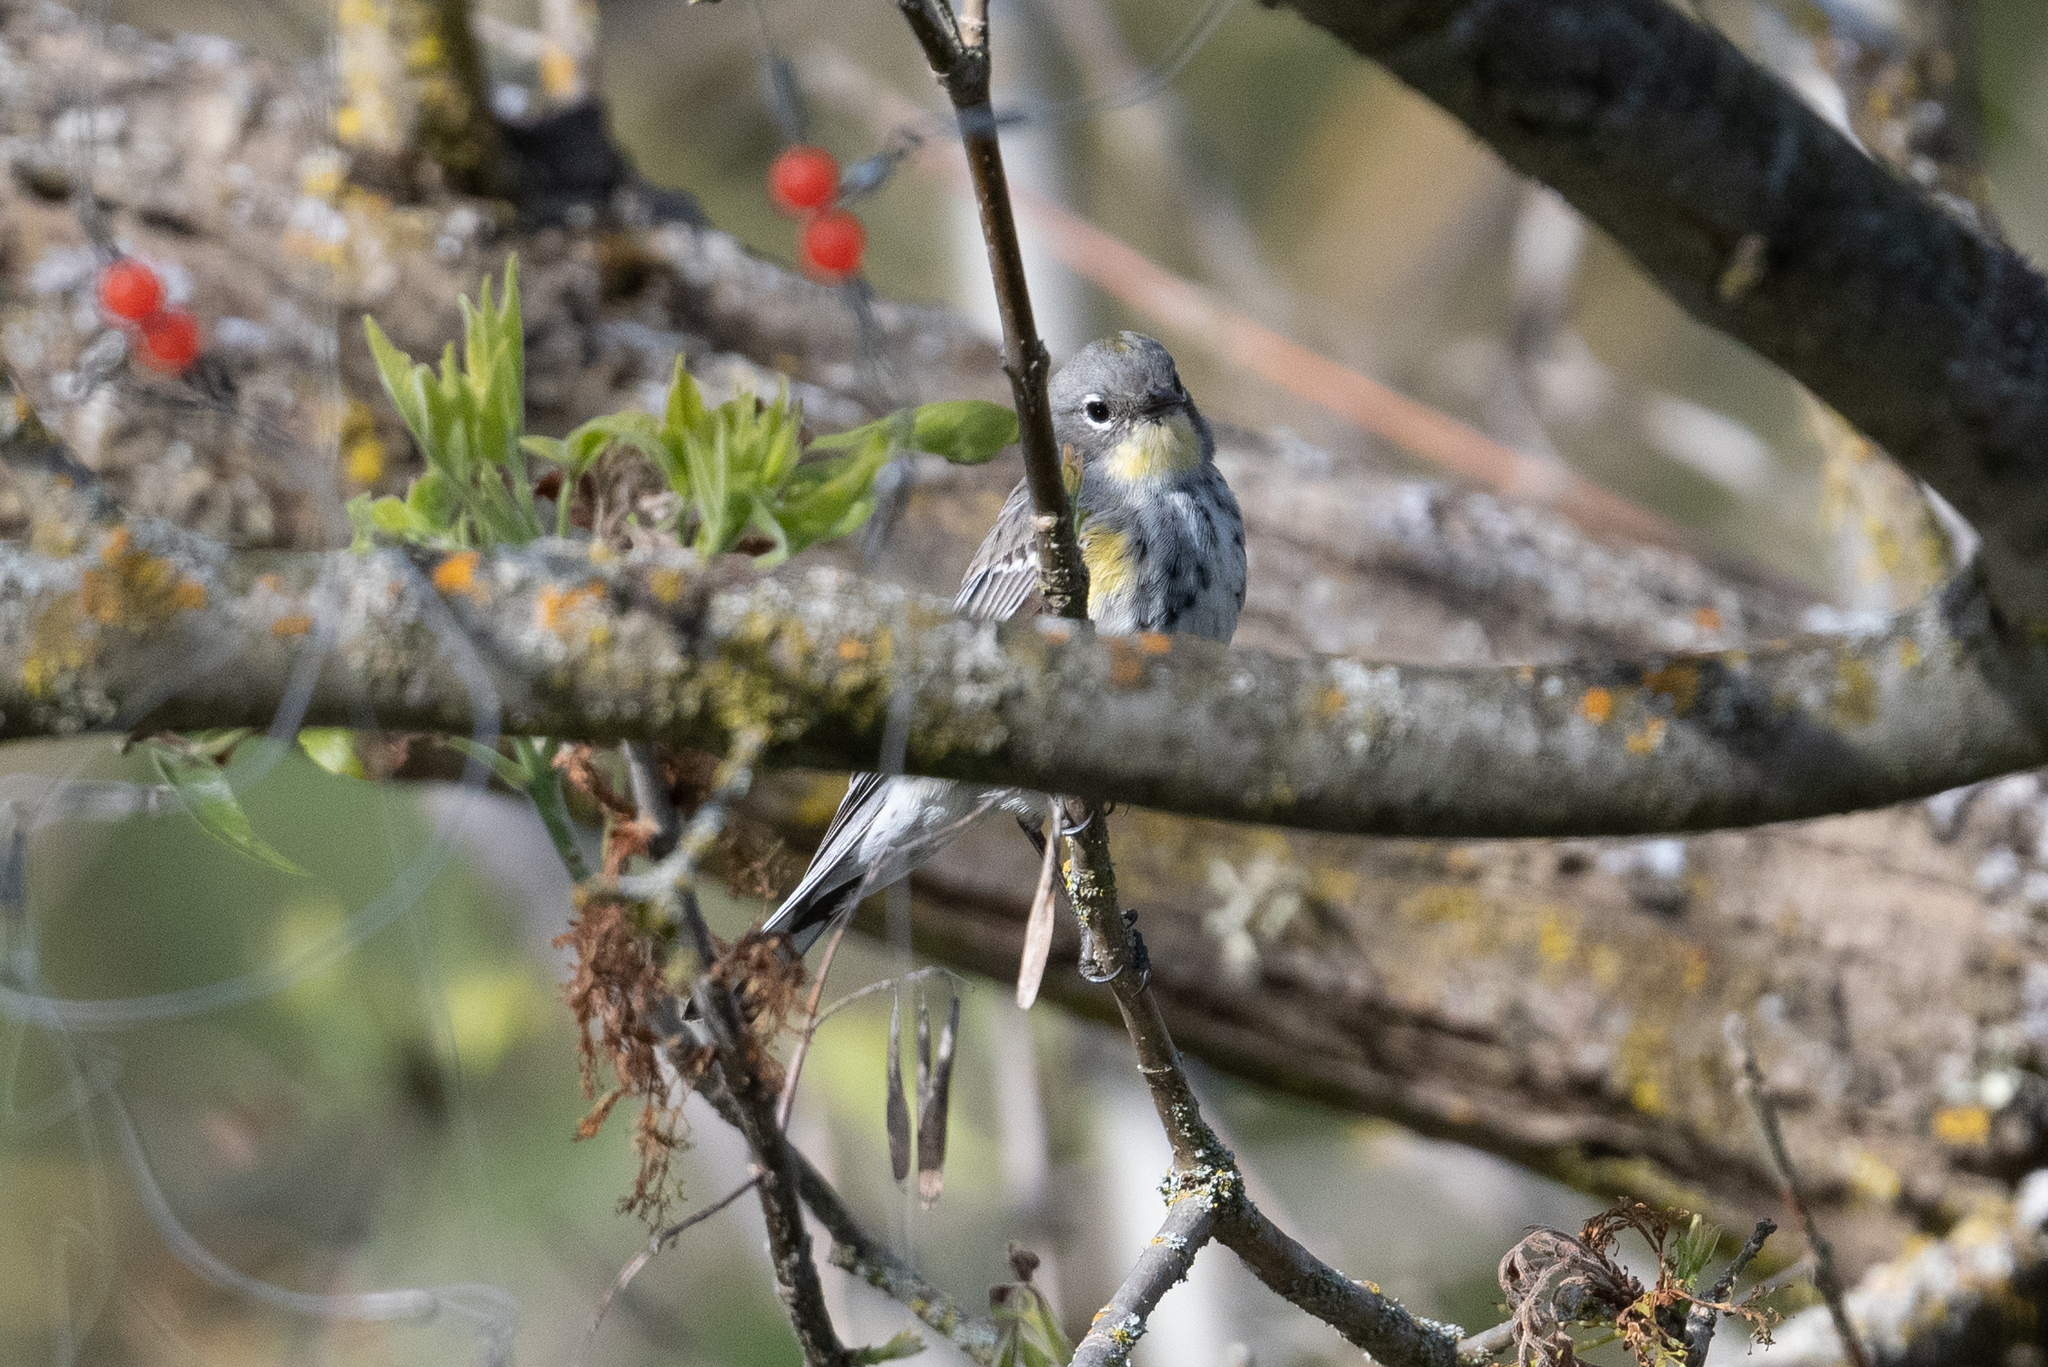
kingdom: Animalia
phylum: Chordata
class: Aves
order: Passeriformes
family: Parulidae
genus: Setophaga
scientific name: Setophaga coronata
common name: Myrtle warbler
